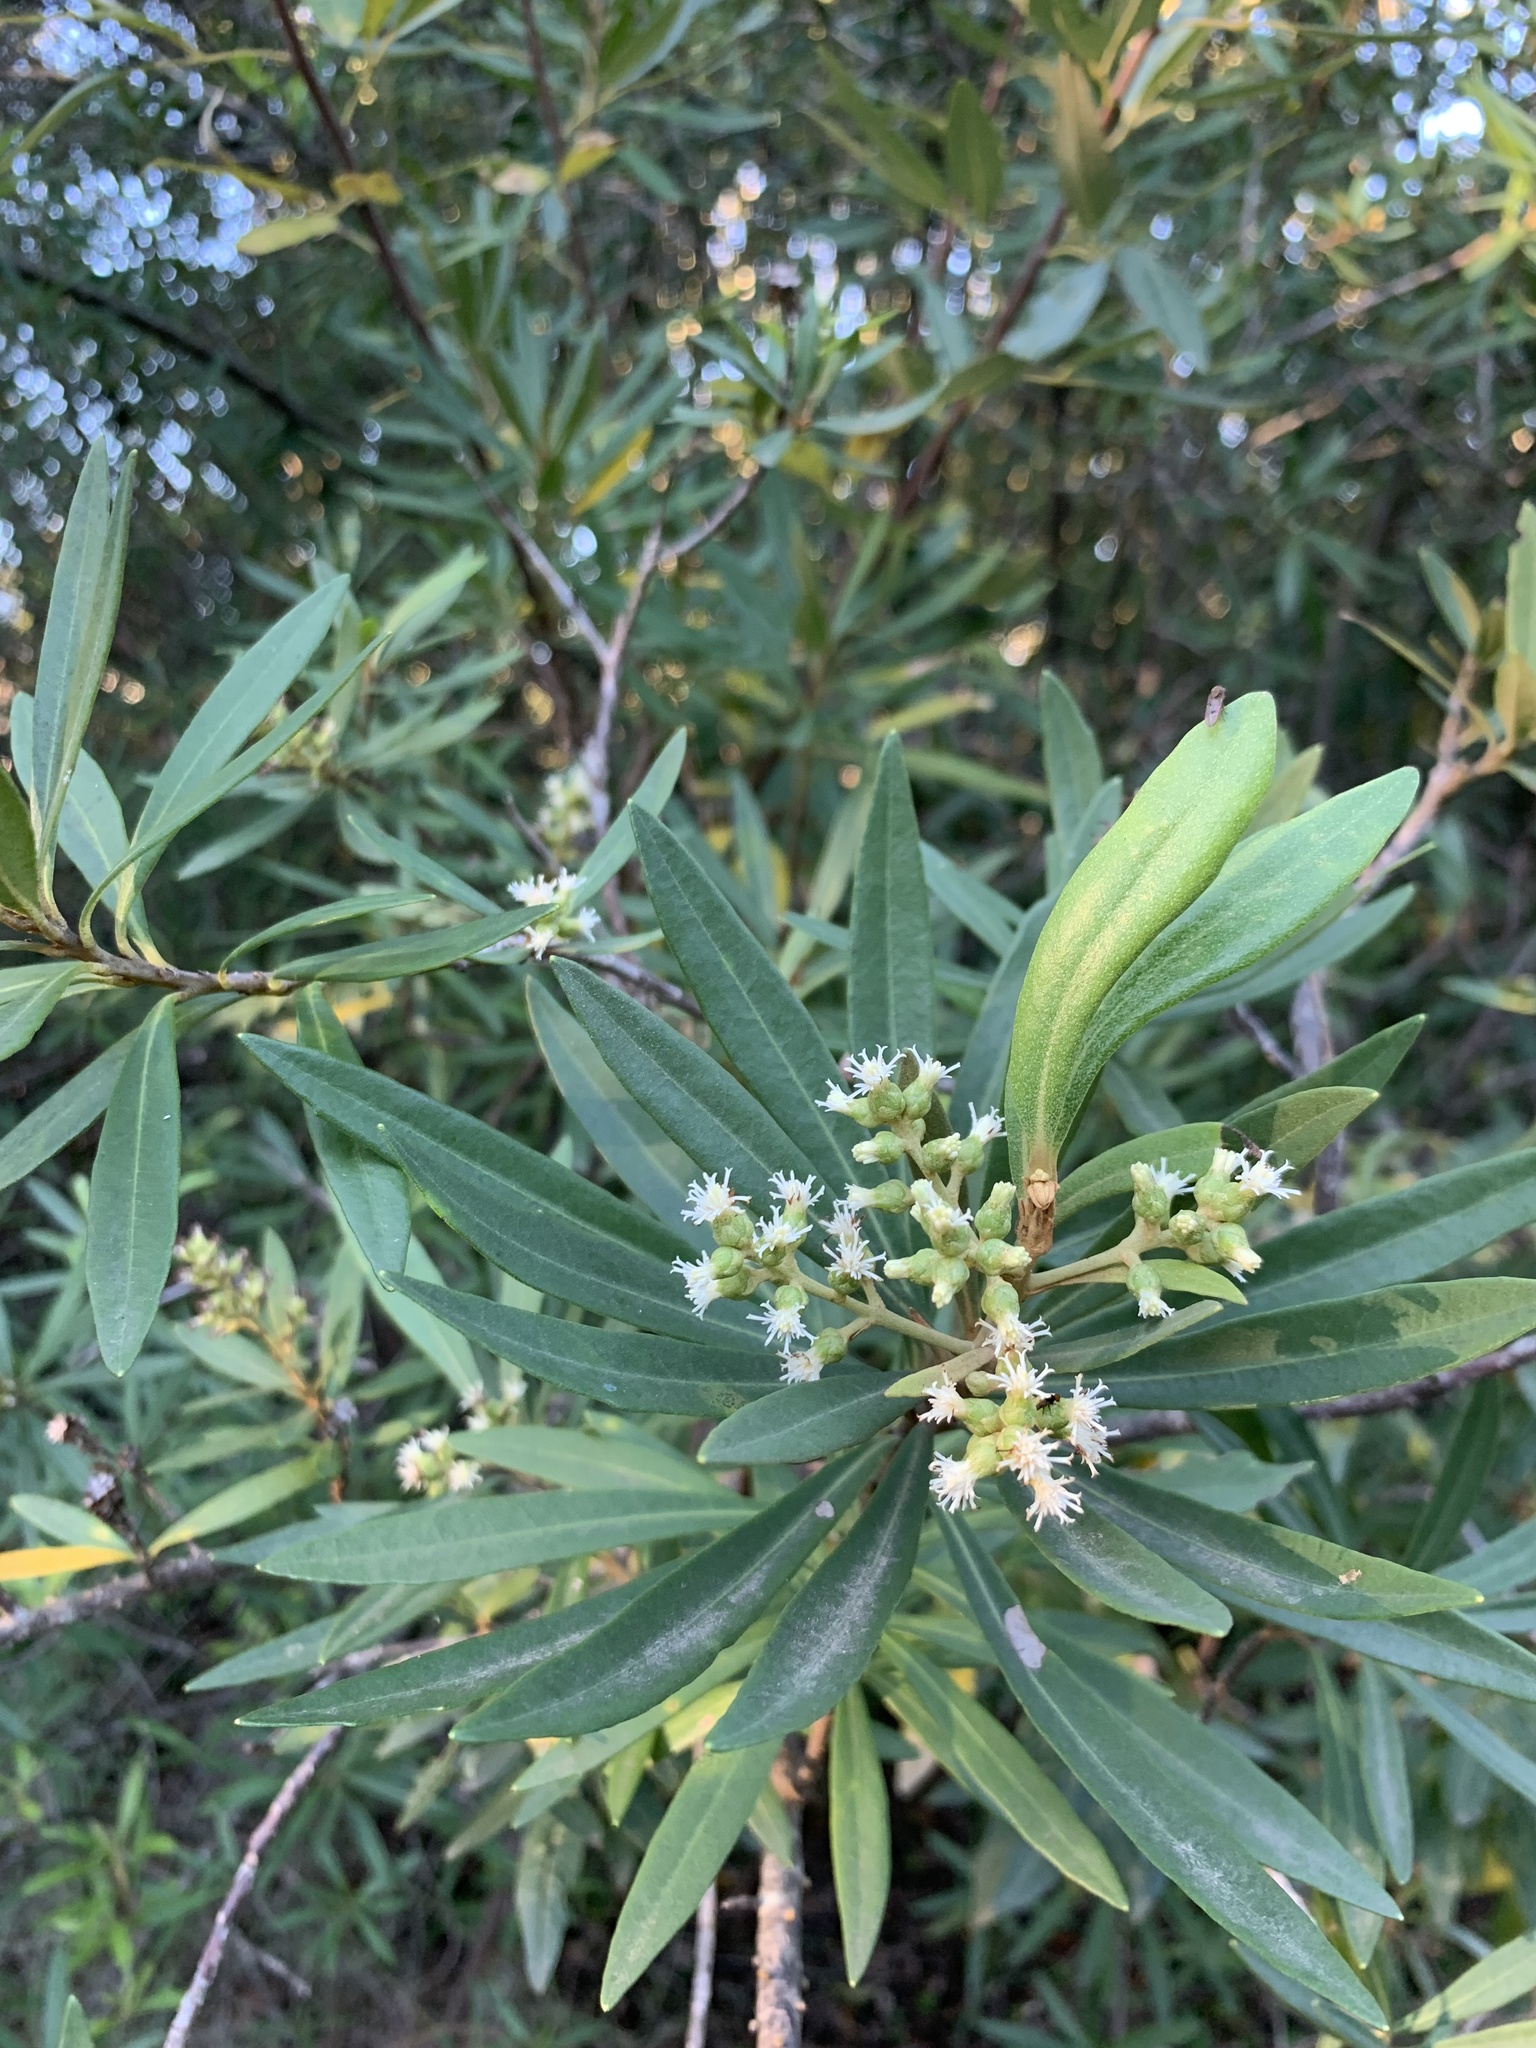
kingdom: Plantae
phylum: Tracheophyta
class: Magnoliopsida
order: Asterales
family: Asteraceae
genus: Brachylaena
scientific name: Brachylaena neriifolia
